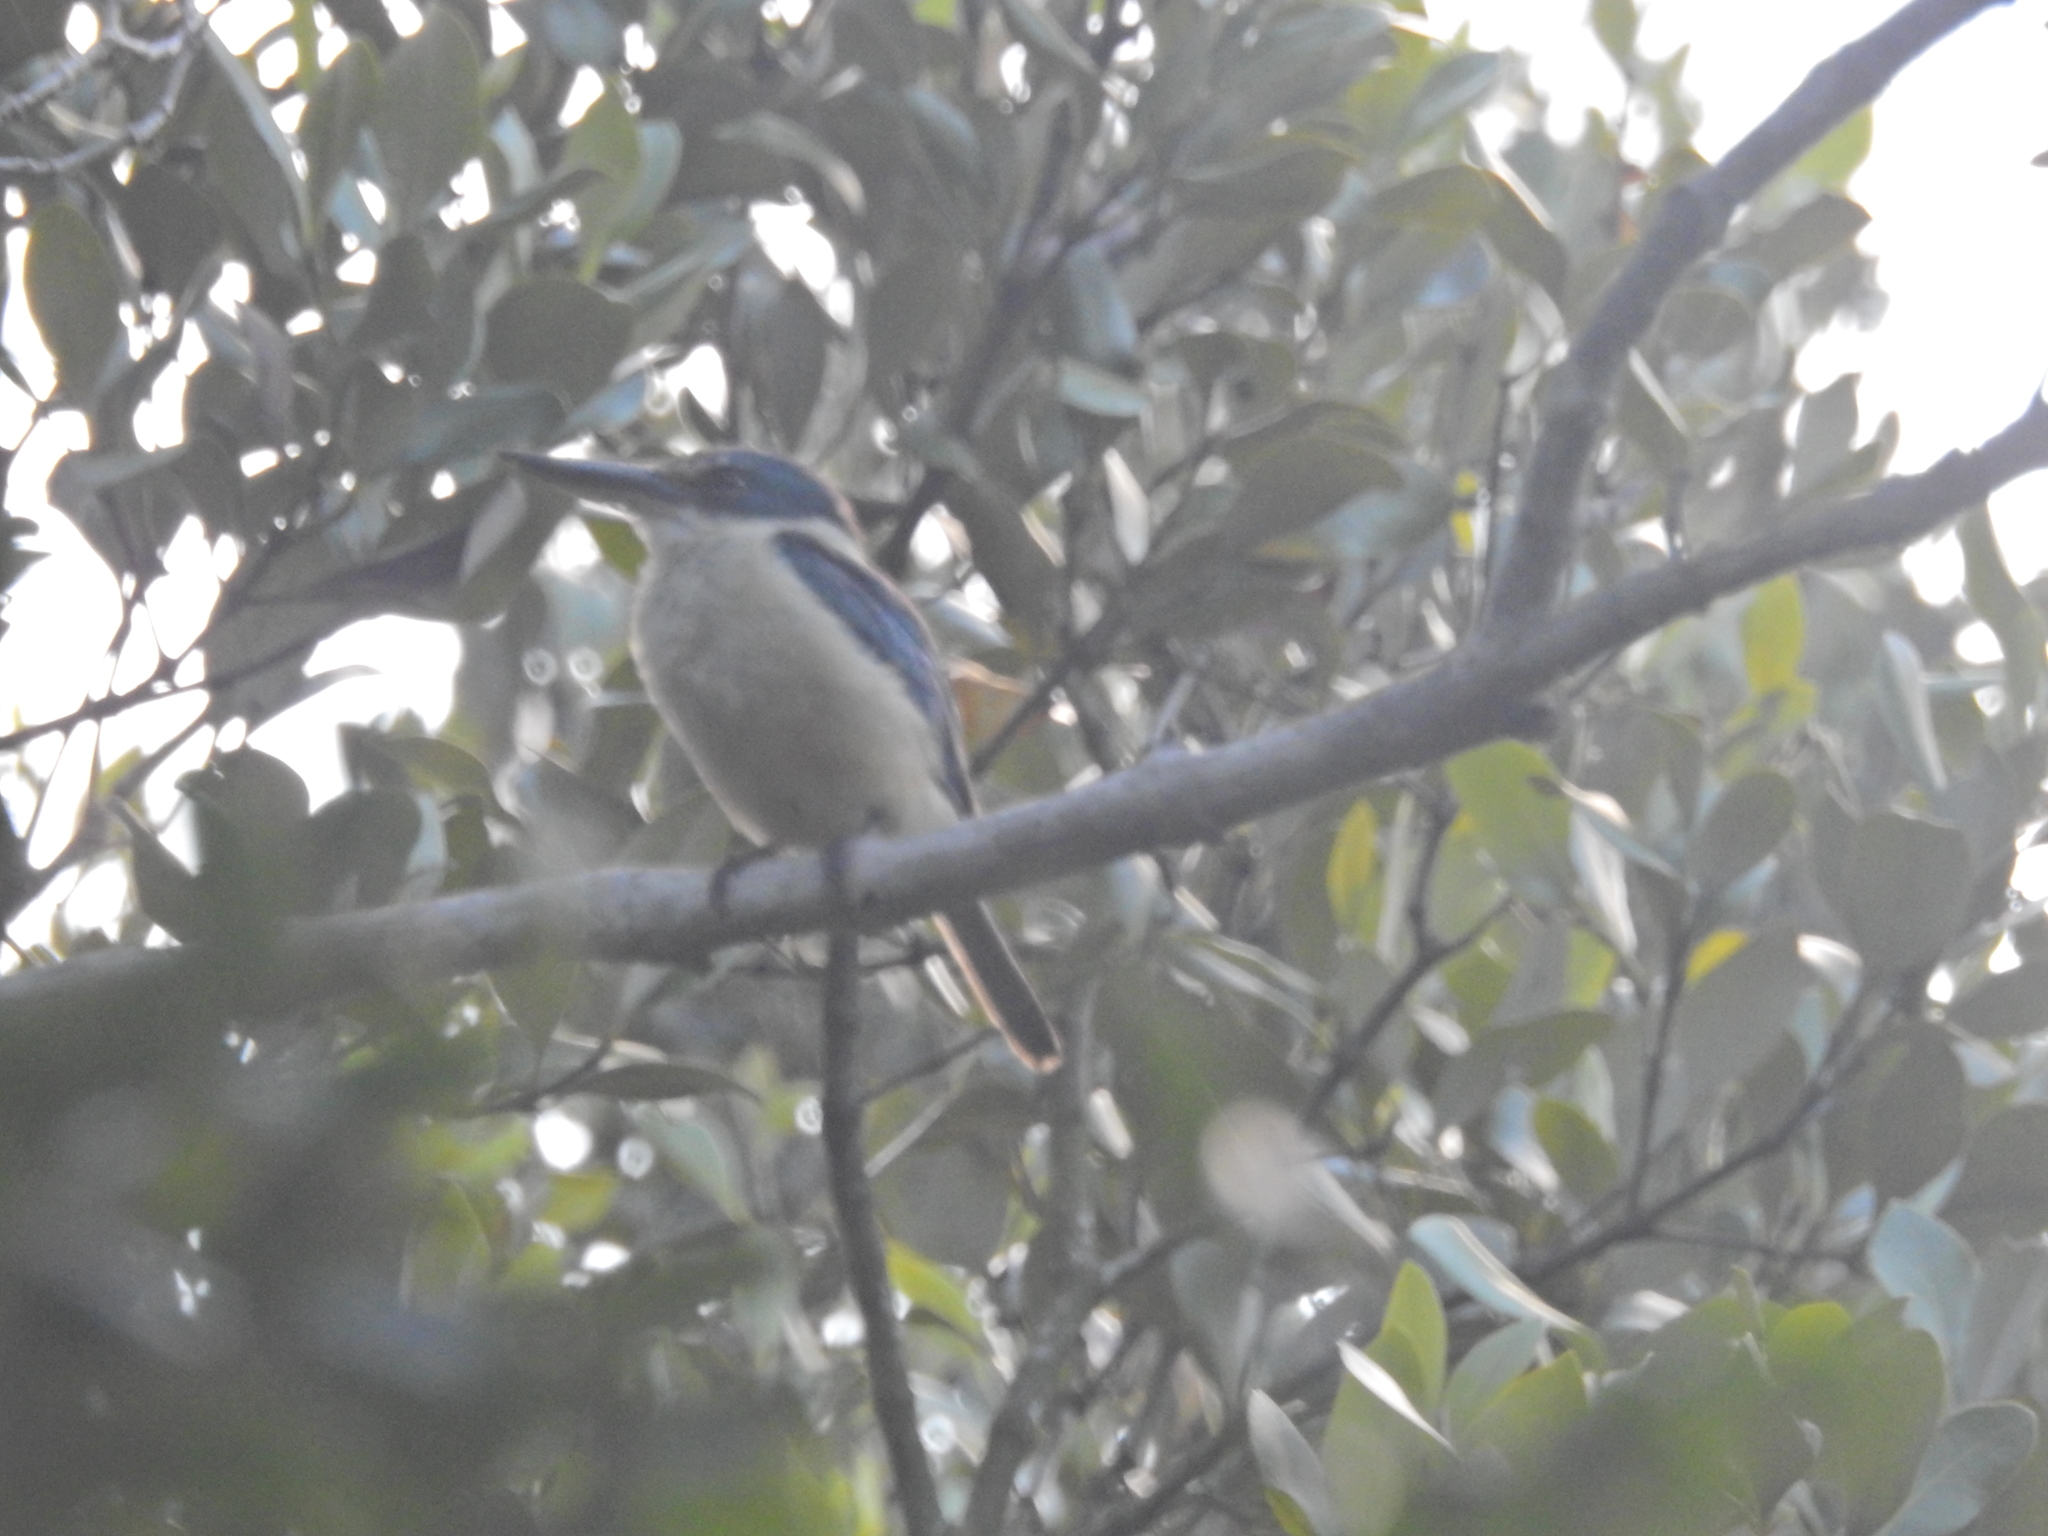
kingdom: Animalia
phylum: Chordata
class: Aves
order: Coraciiformes
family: Alcedinidae
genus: Todiramphus
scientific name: Todiramphus sanctus
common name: Sacred kingfisher
